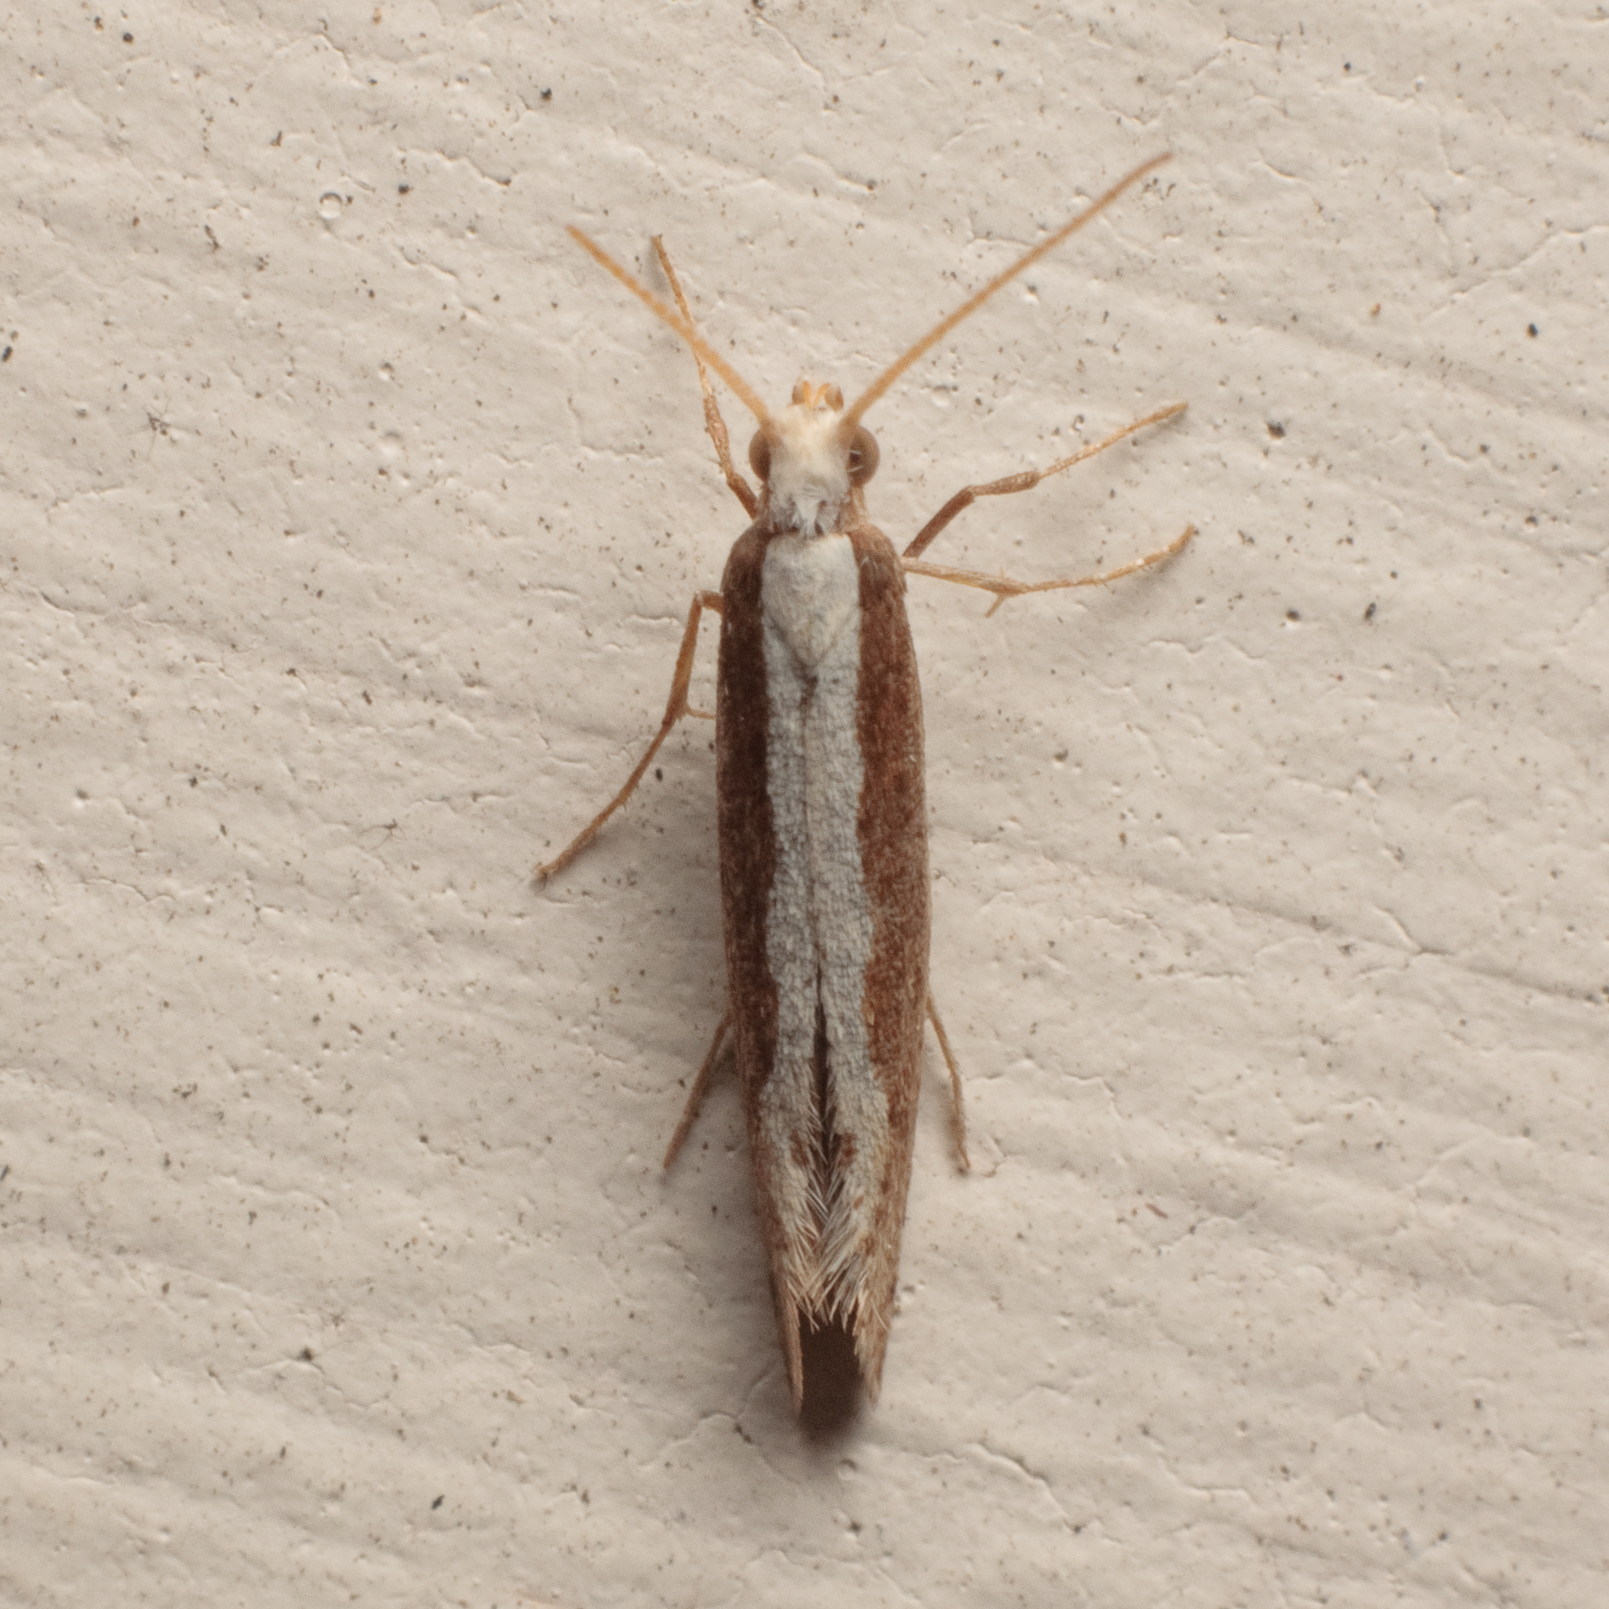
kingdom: Animalia
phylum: Arthropoda
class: Insecta
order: Lepidoptera
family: Plutellidae
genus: Plutella
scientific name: Plutella xylostella
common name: Diamond-back moth
